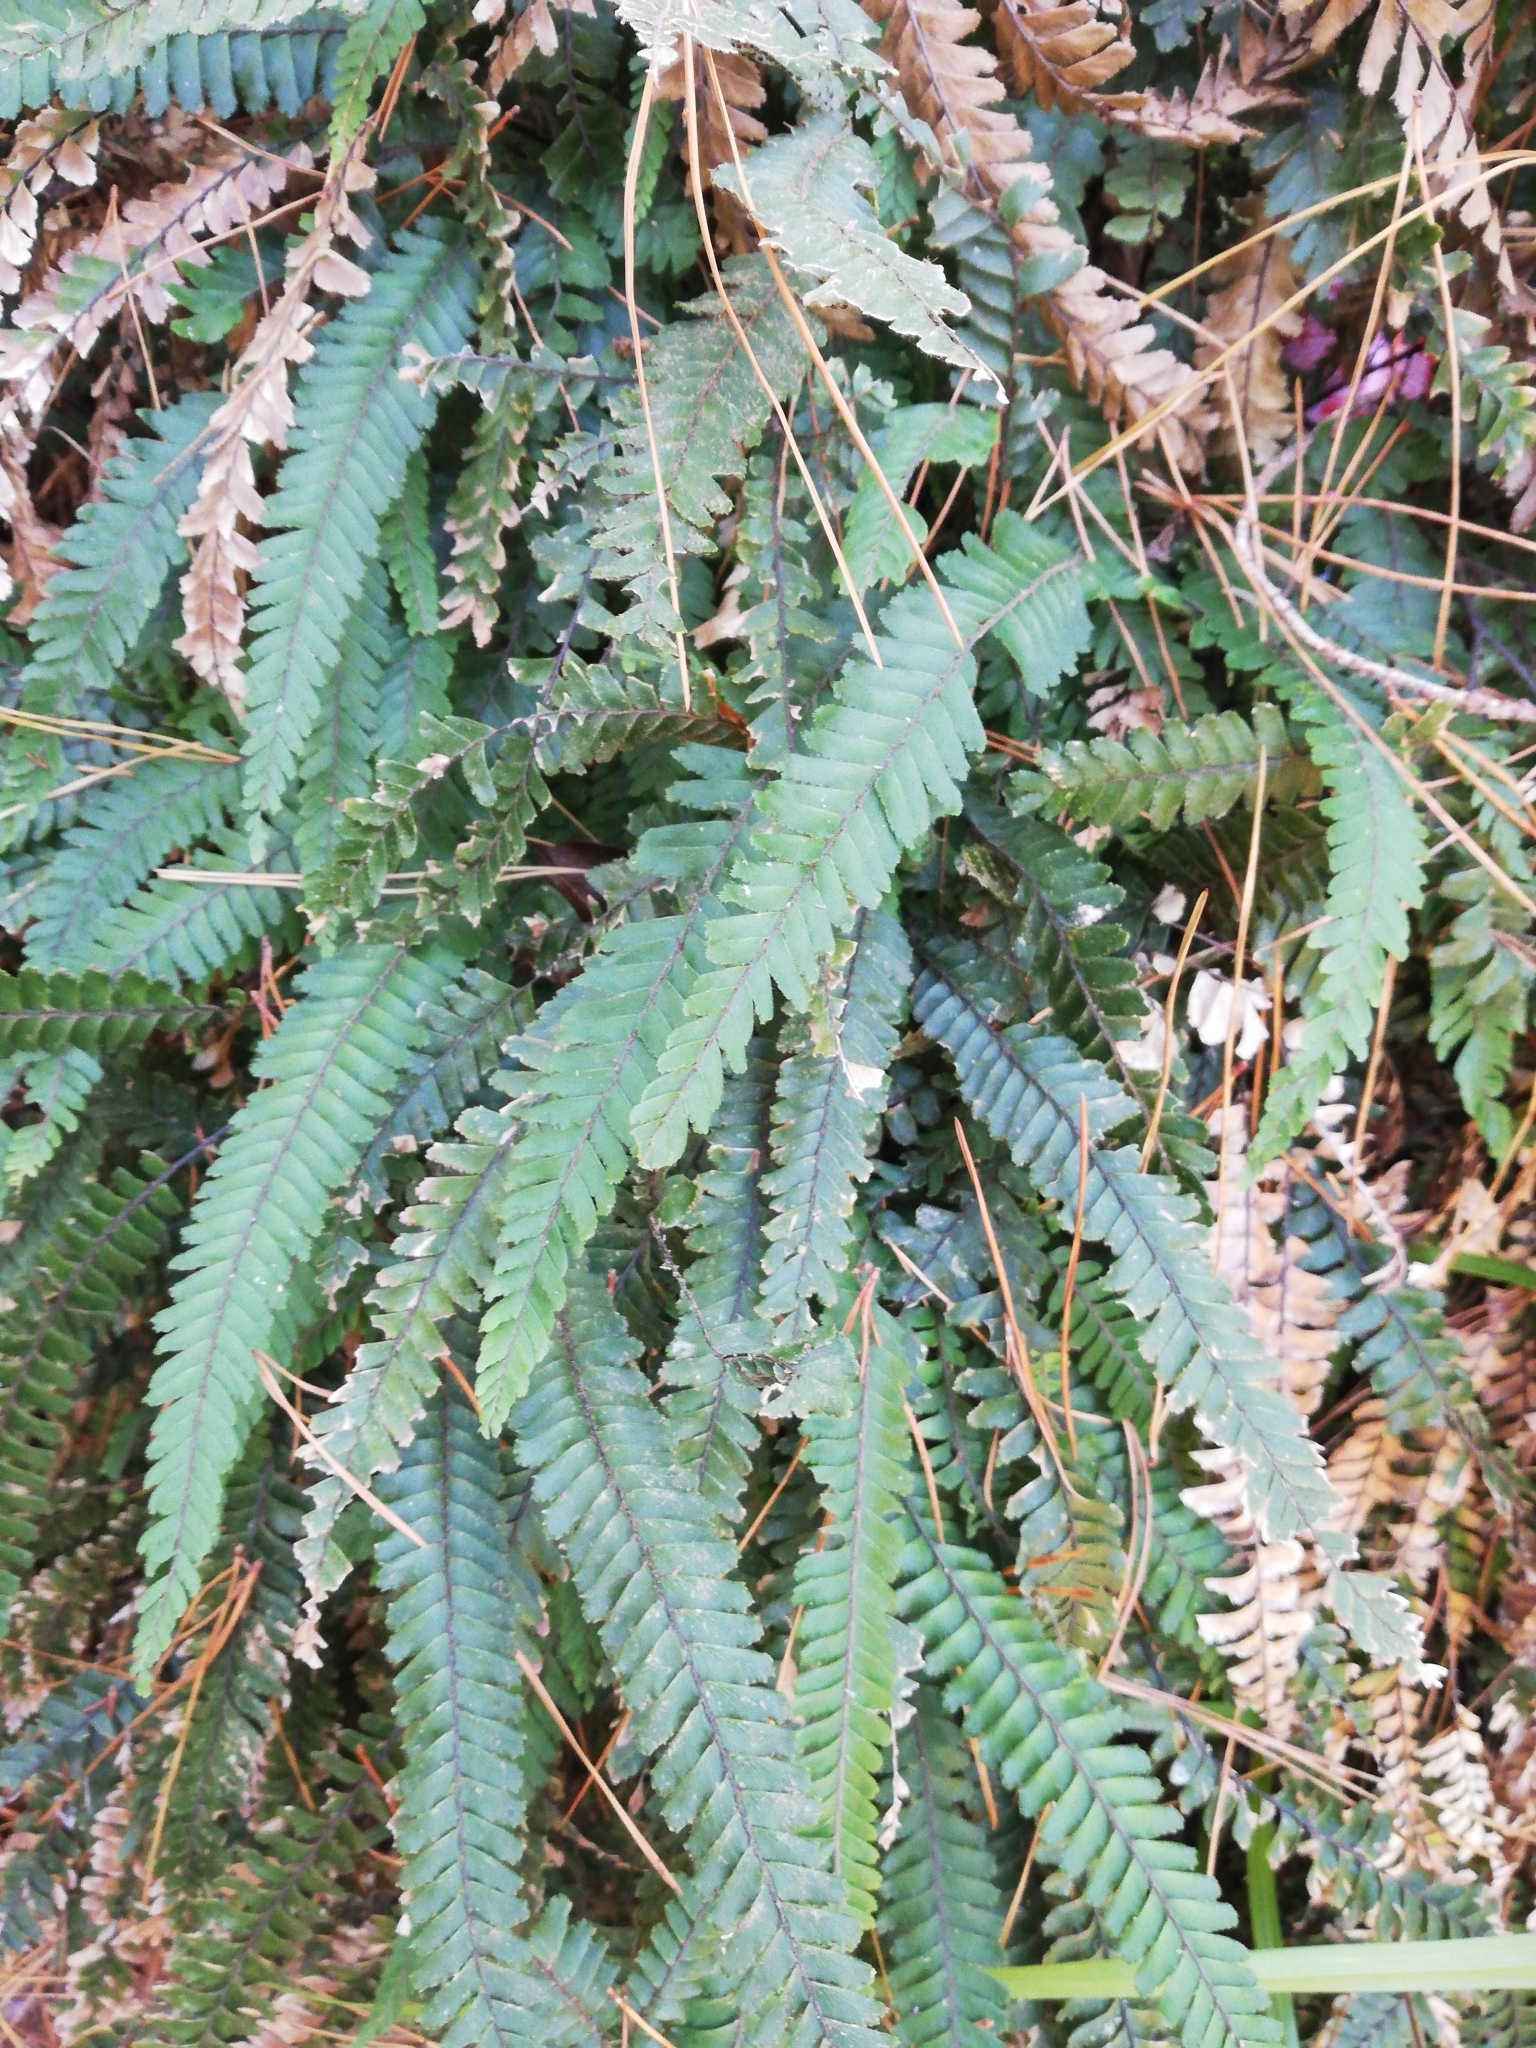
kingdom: Plantae
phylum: Tracheophyta
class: Polypodiopsida
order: Polypodiales
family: Pteridaceae
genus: Adiantum
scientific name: Adiantum hispidulum
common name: Rough maidenhair
